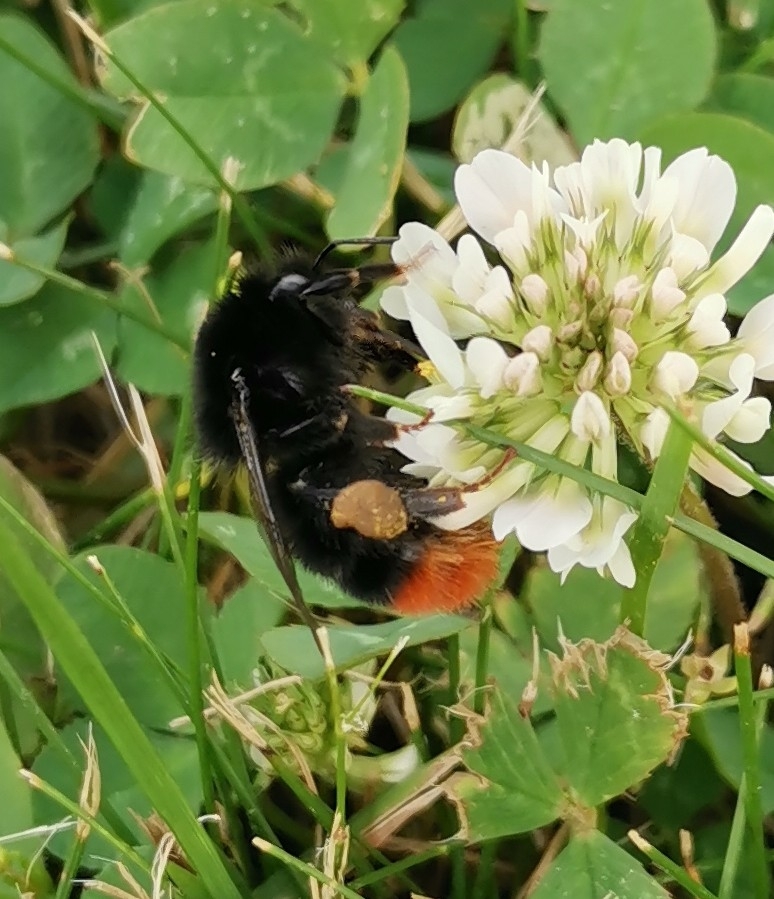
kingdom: Animalia
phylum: Arthropoda
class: Insecta
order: Hymenoptera
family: Apidae
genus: Bombus
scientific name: Bombus lapidarius
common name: Large red-tailed humble-bee
